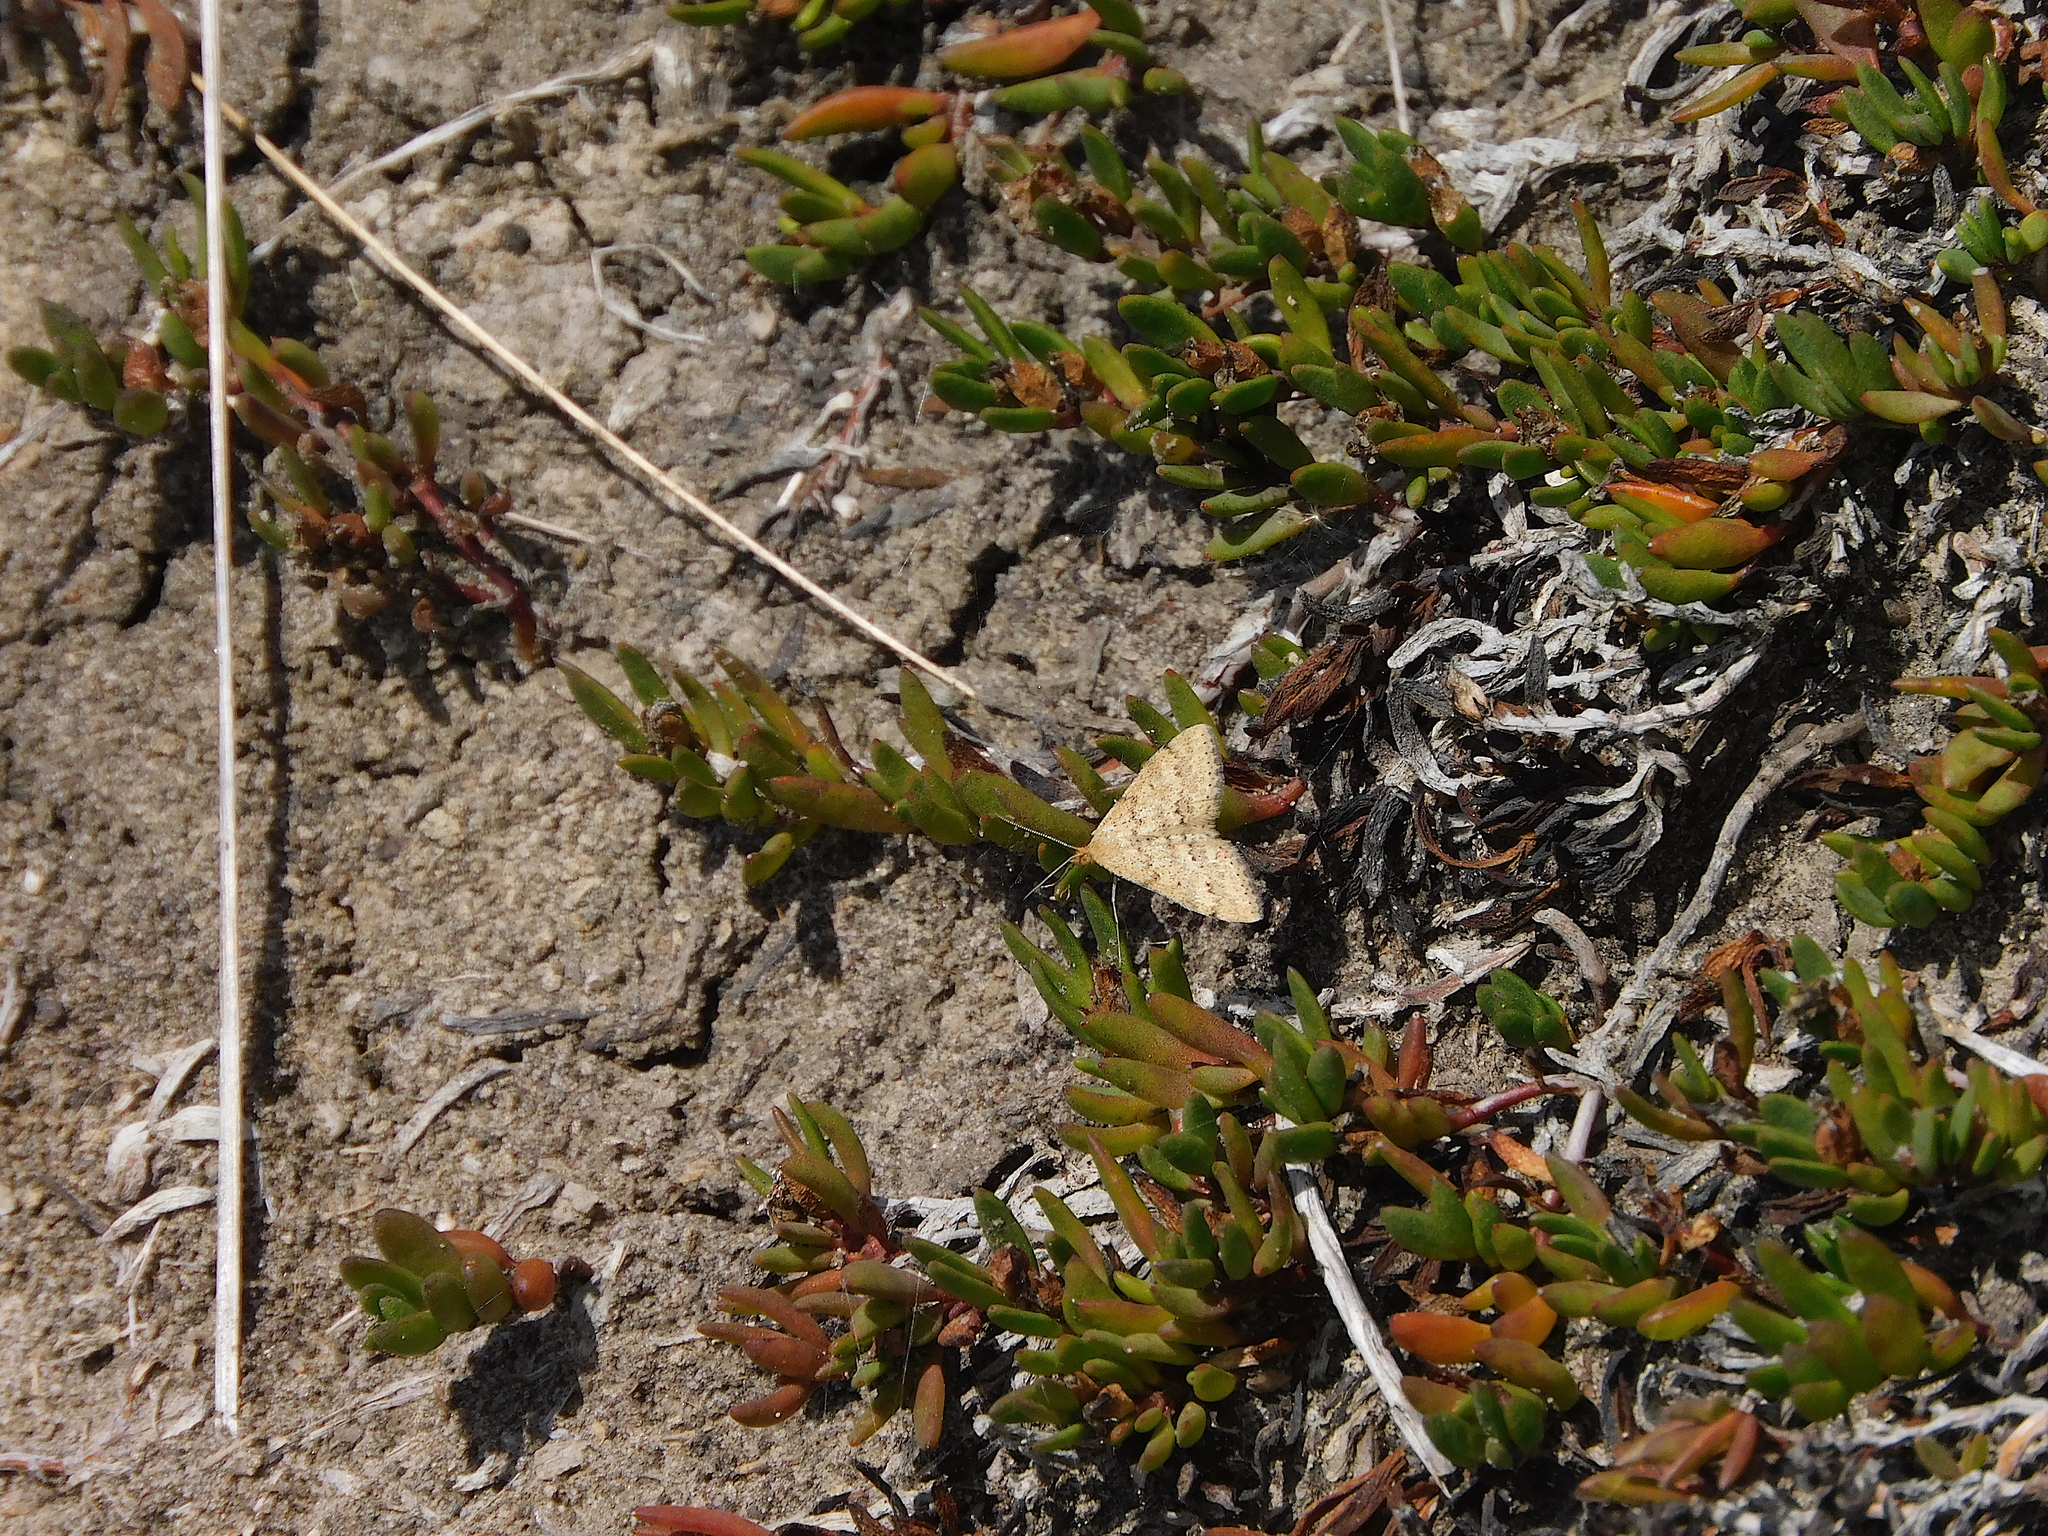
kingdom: Animalia
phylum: Arthropoda
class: Insecta
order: Lepidoptera
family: Geometridae
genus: Scopula
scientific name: Scopula rubraria
